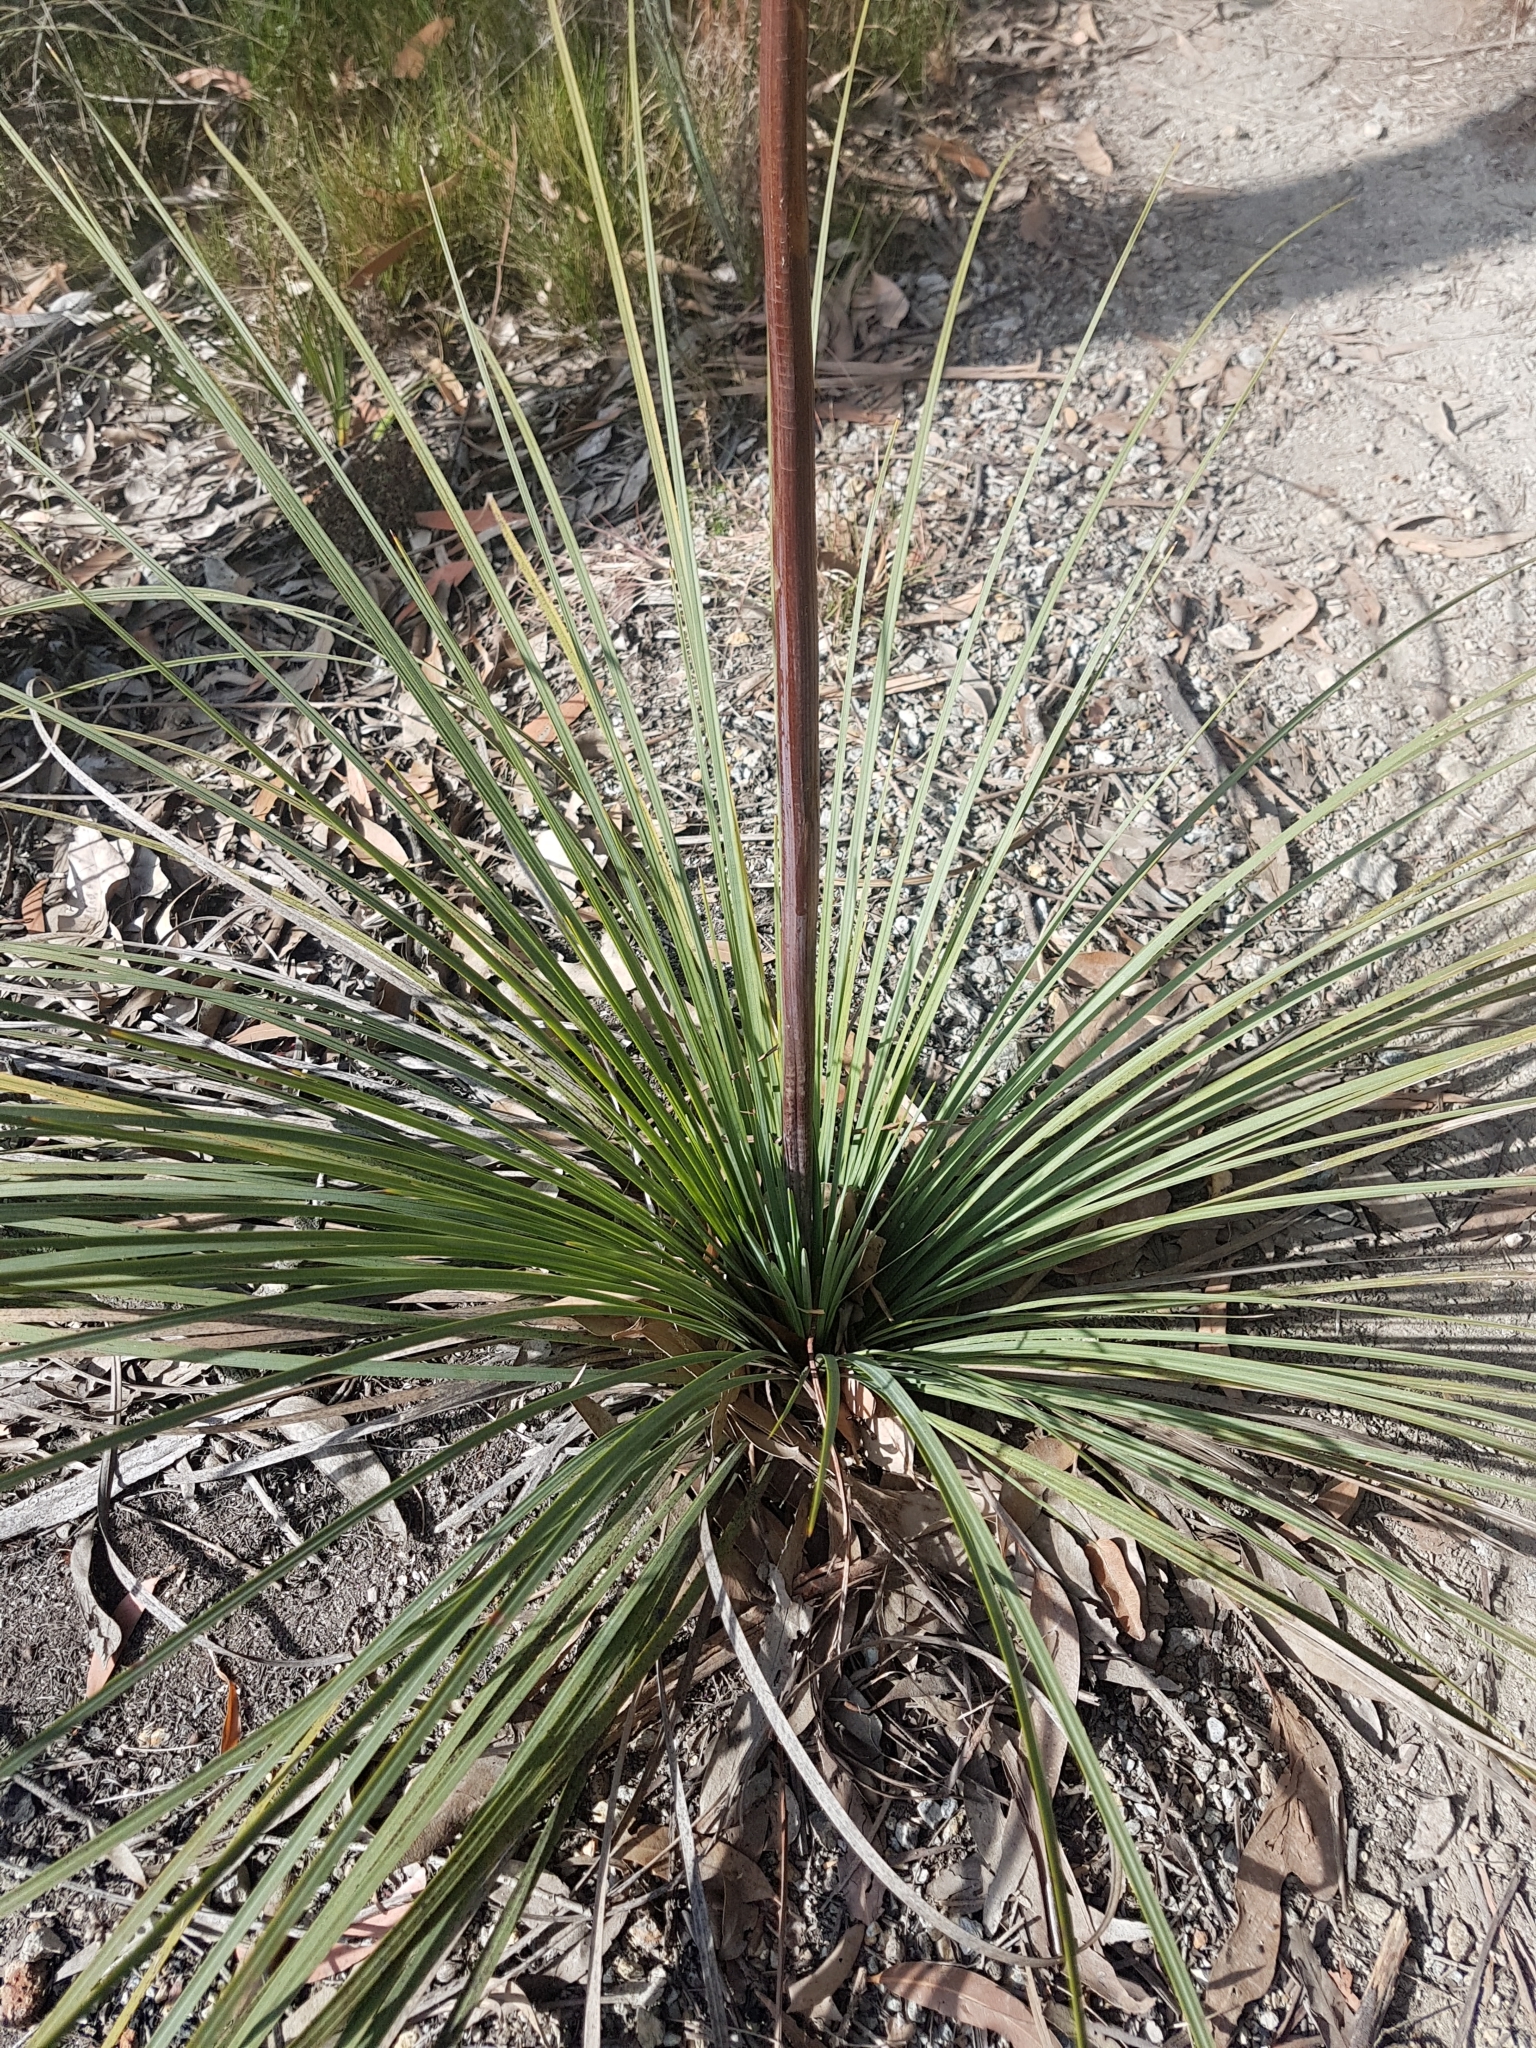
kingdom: Plantae
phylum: Tracheophyta
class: Liliopsida
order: Asparagales
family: Asphodelaceae
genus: Xanthorrhoea
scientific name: Xanthorrhoea concava
